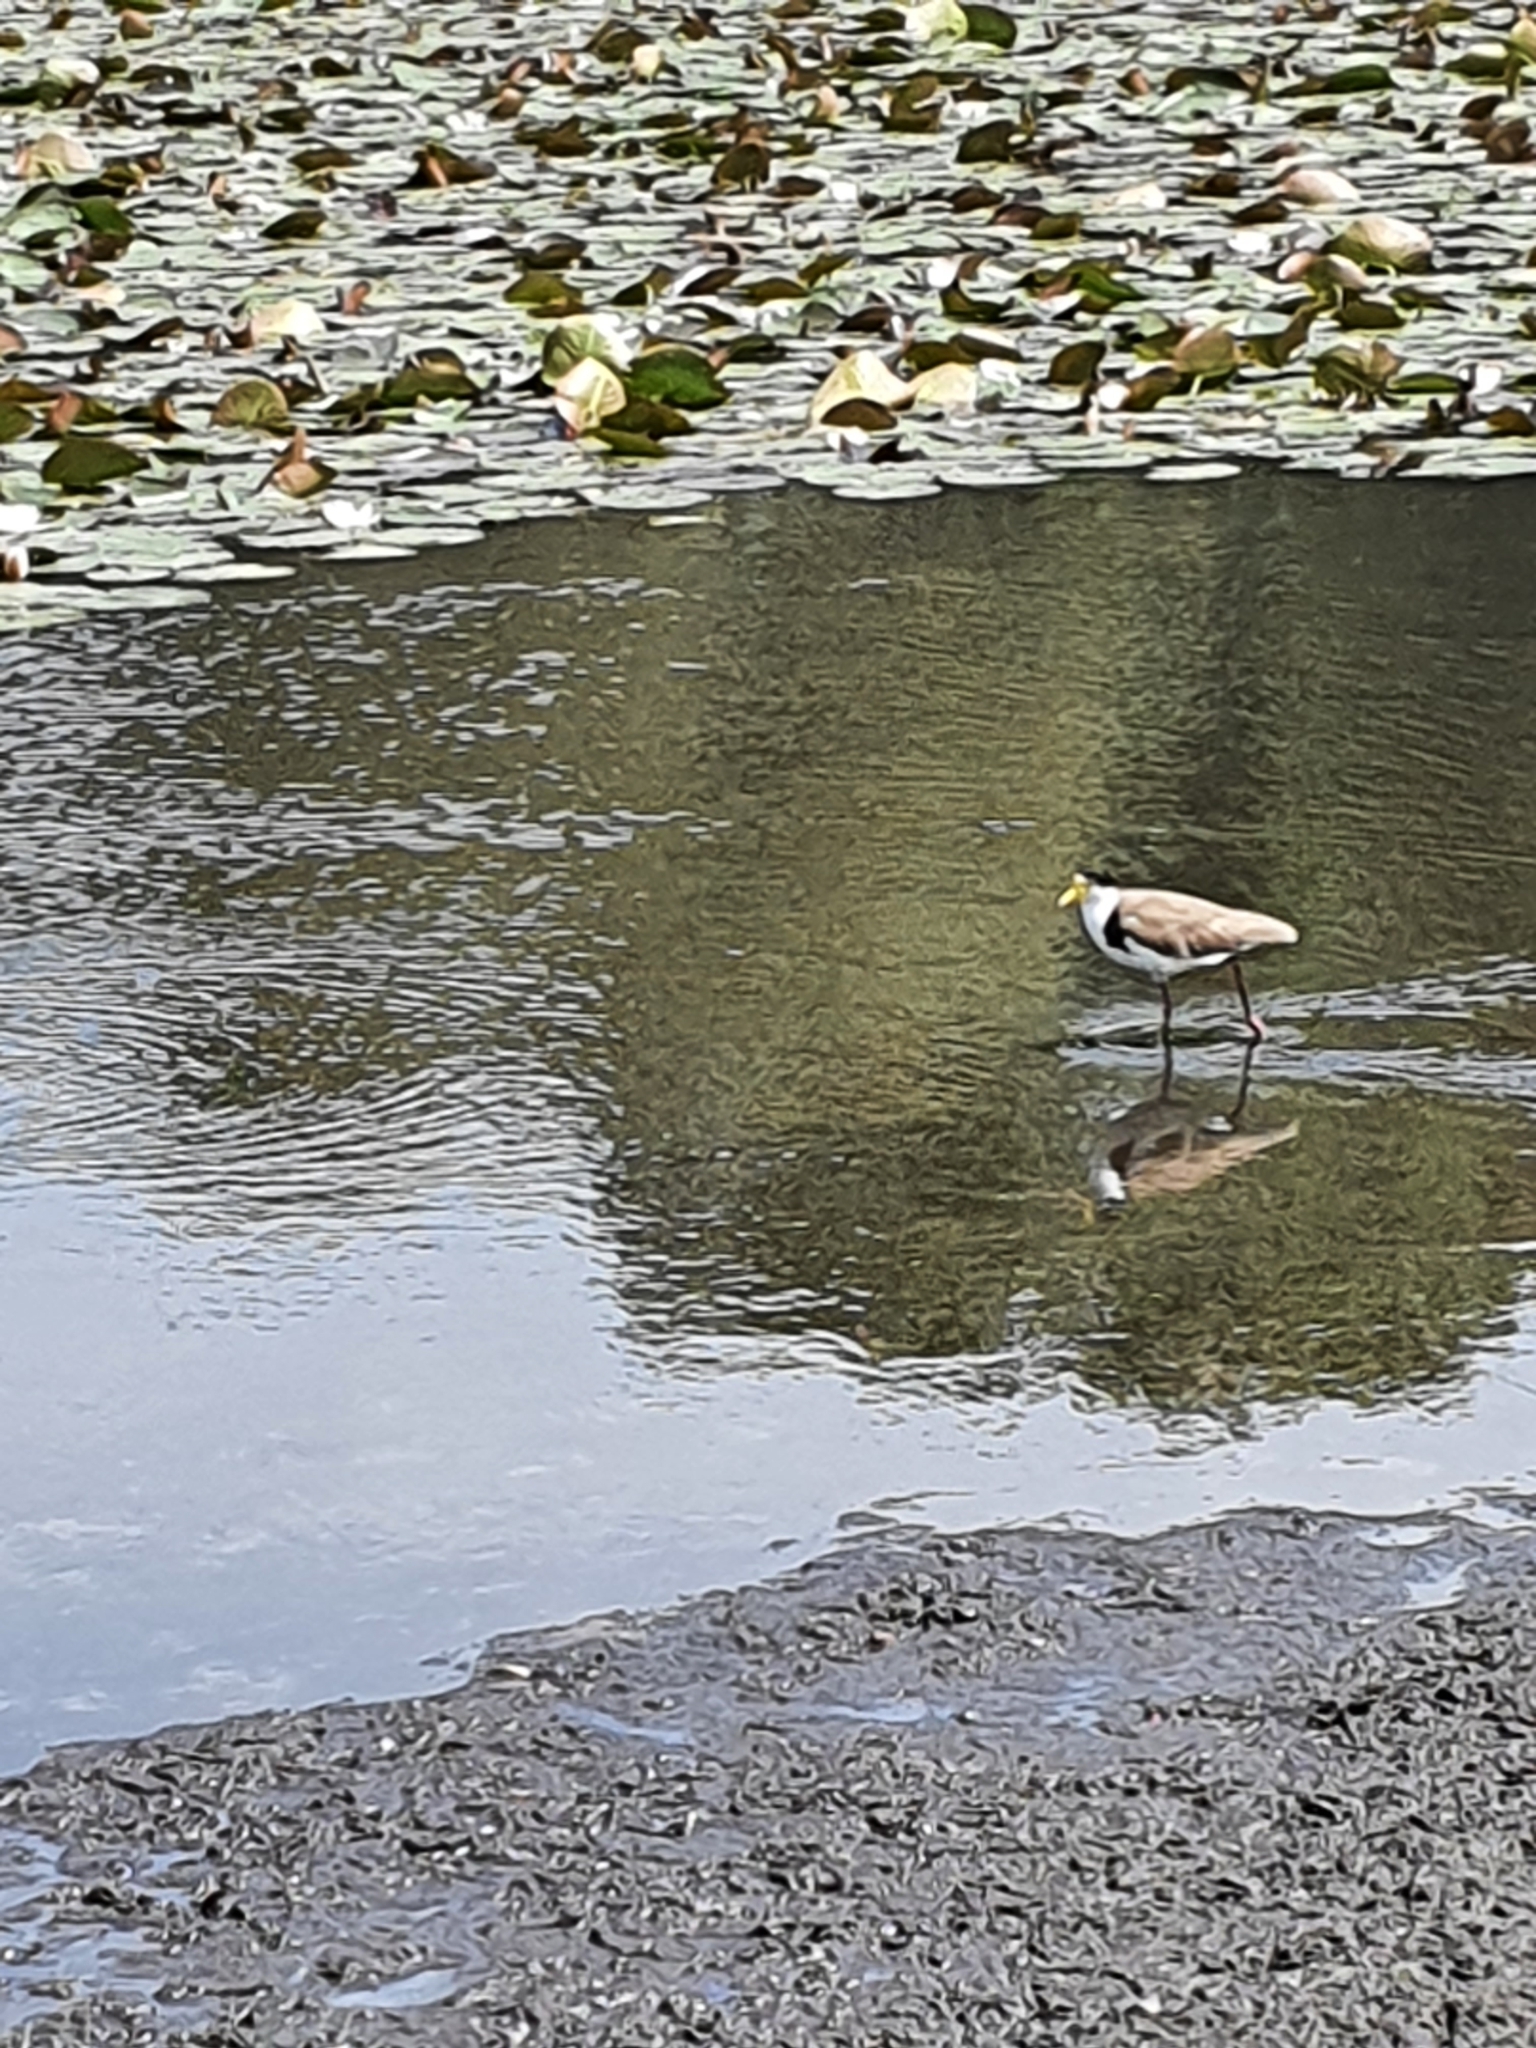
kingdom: Animalia
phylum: Chordata
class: Aves
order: Charadriiformes
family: Charadriidae
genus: Vanellus
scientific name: Vanellus miles
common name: Masked lapwing
